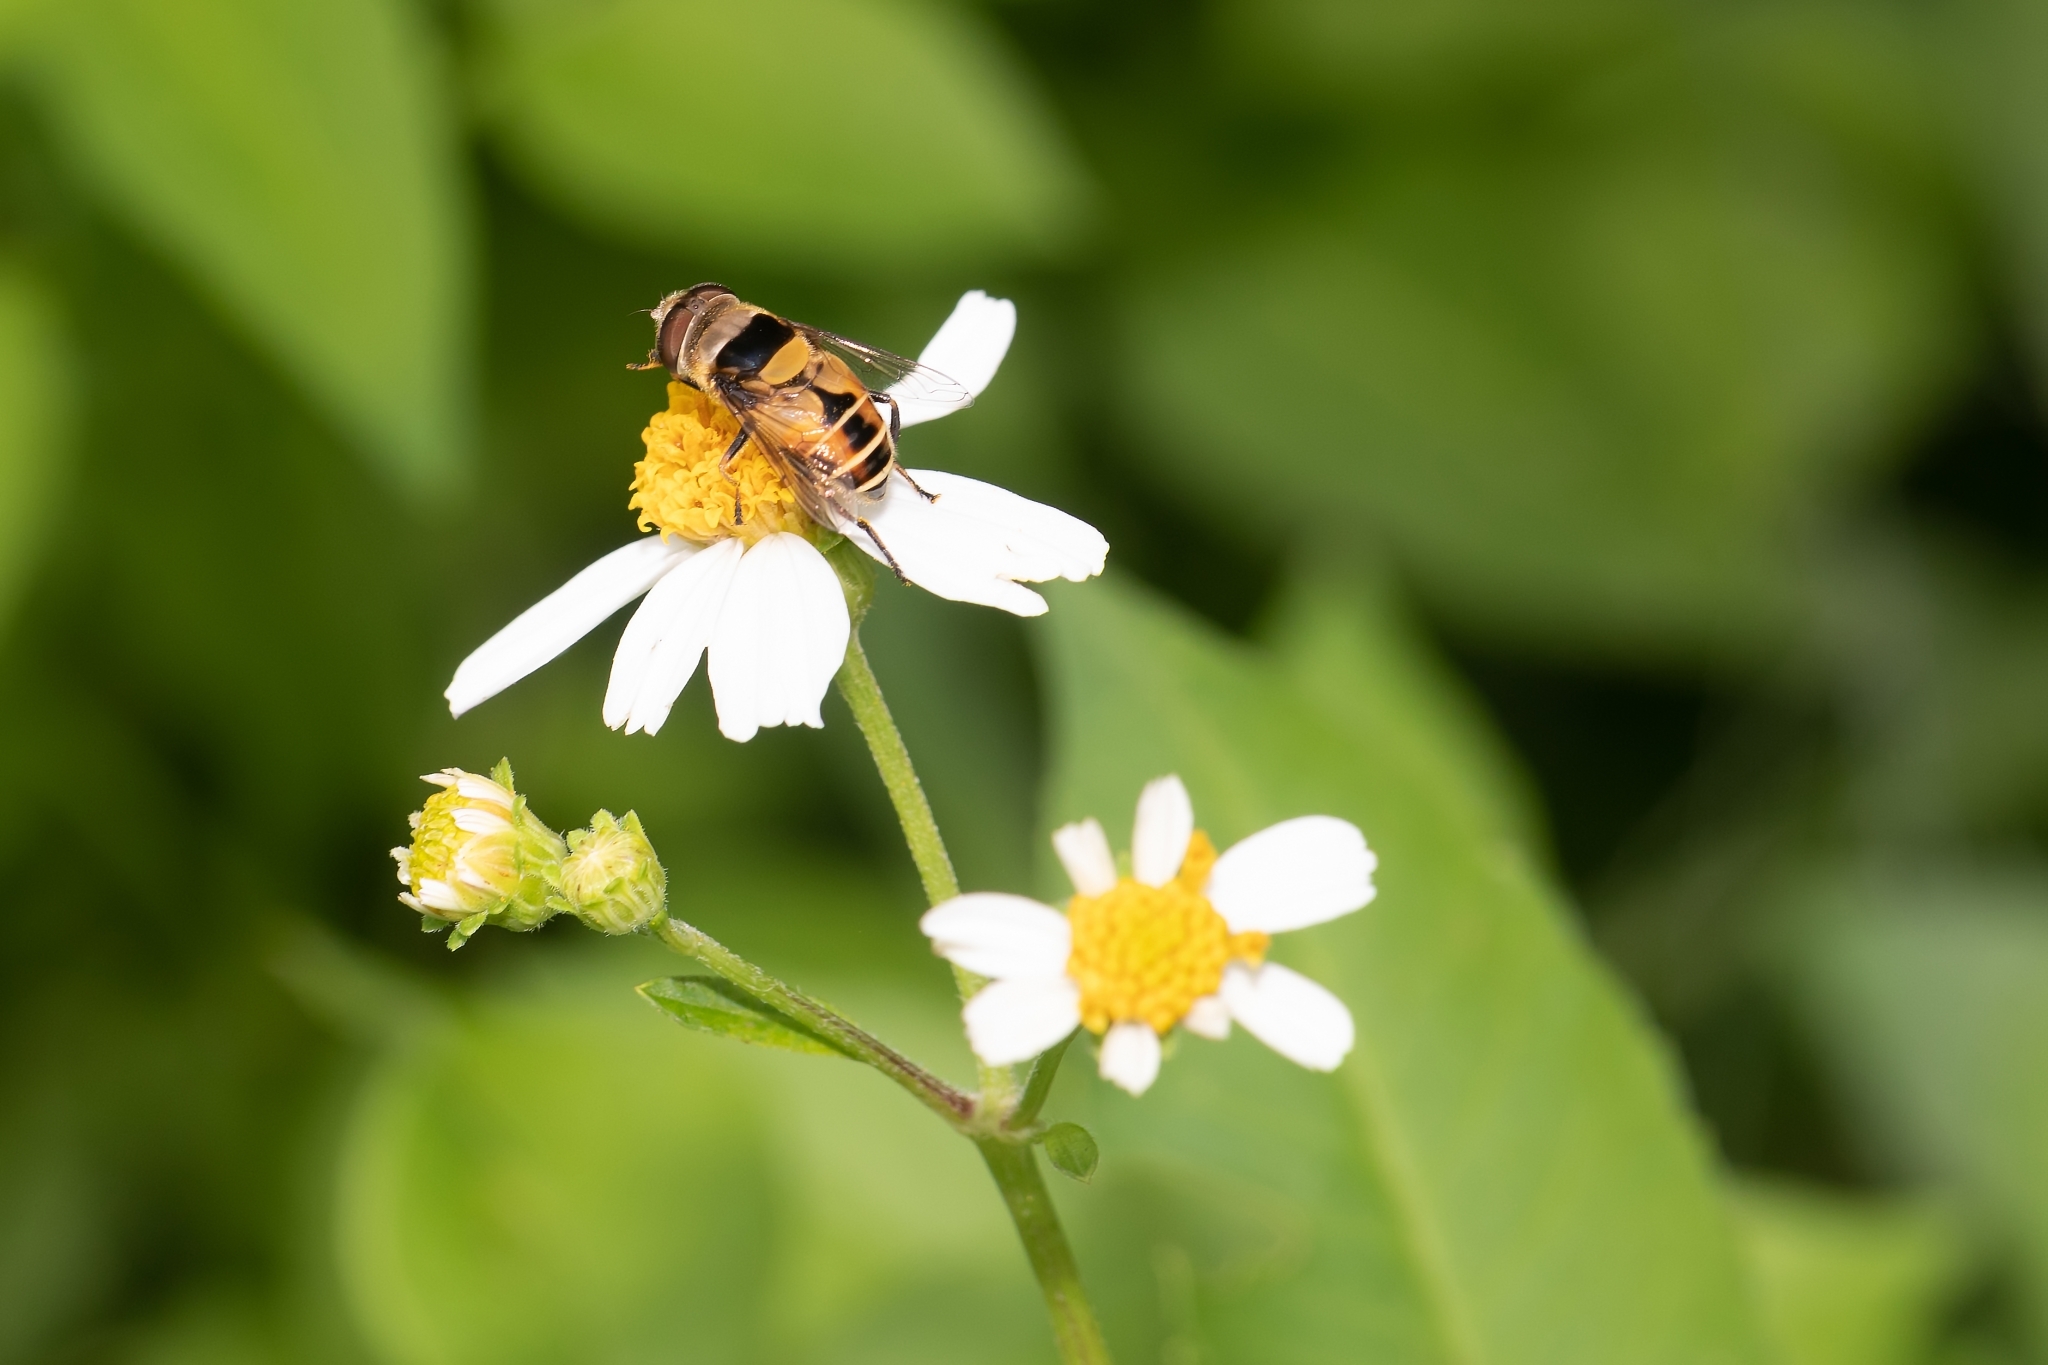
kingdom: Animalia
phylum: Arthropoda
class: Insecta
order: Diptera
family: Syrphidae
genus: Palpada
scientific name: Palpada pusilla
